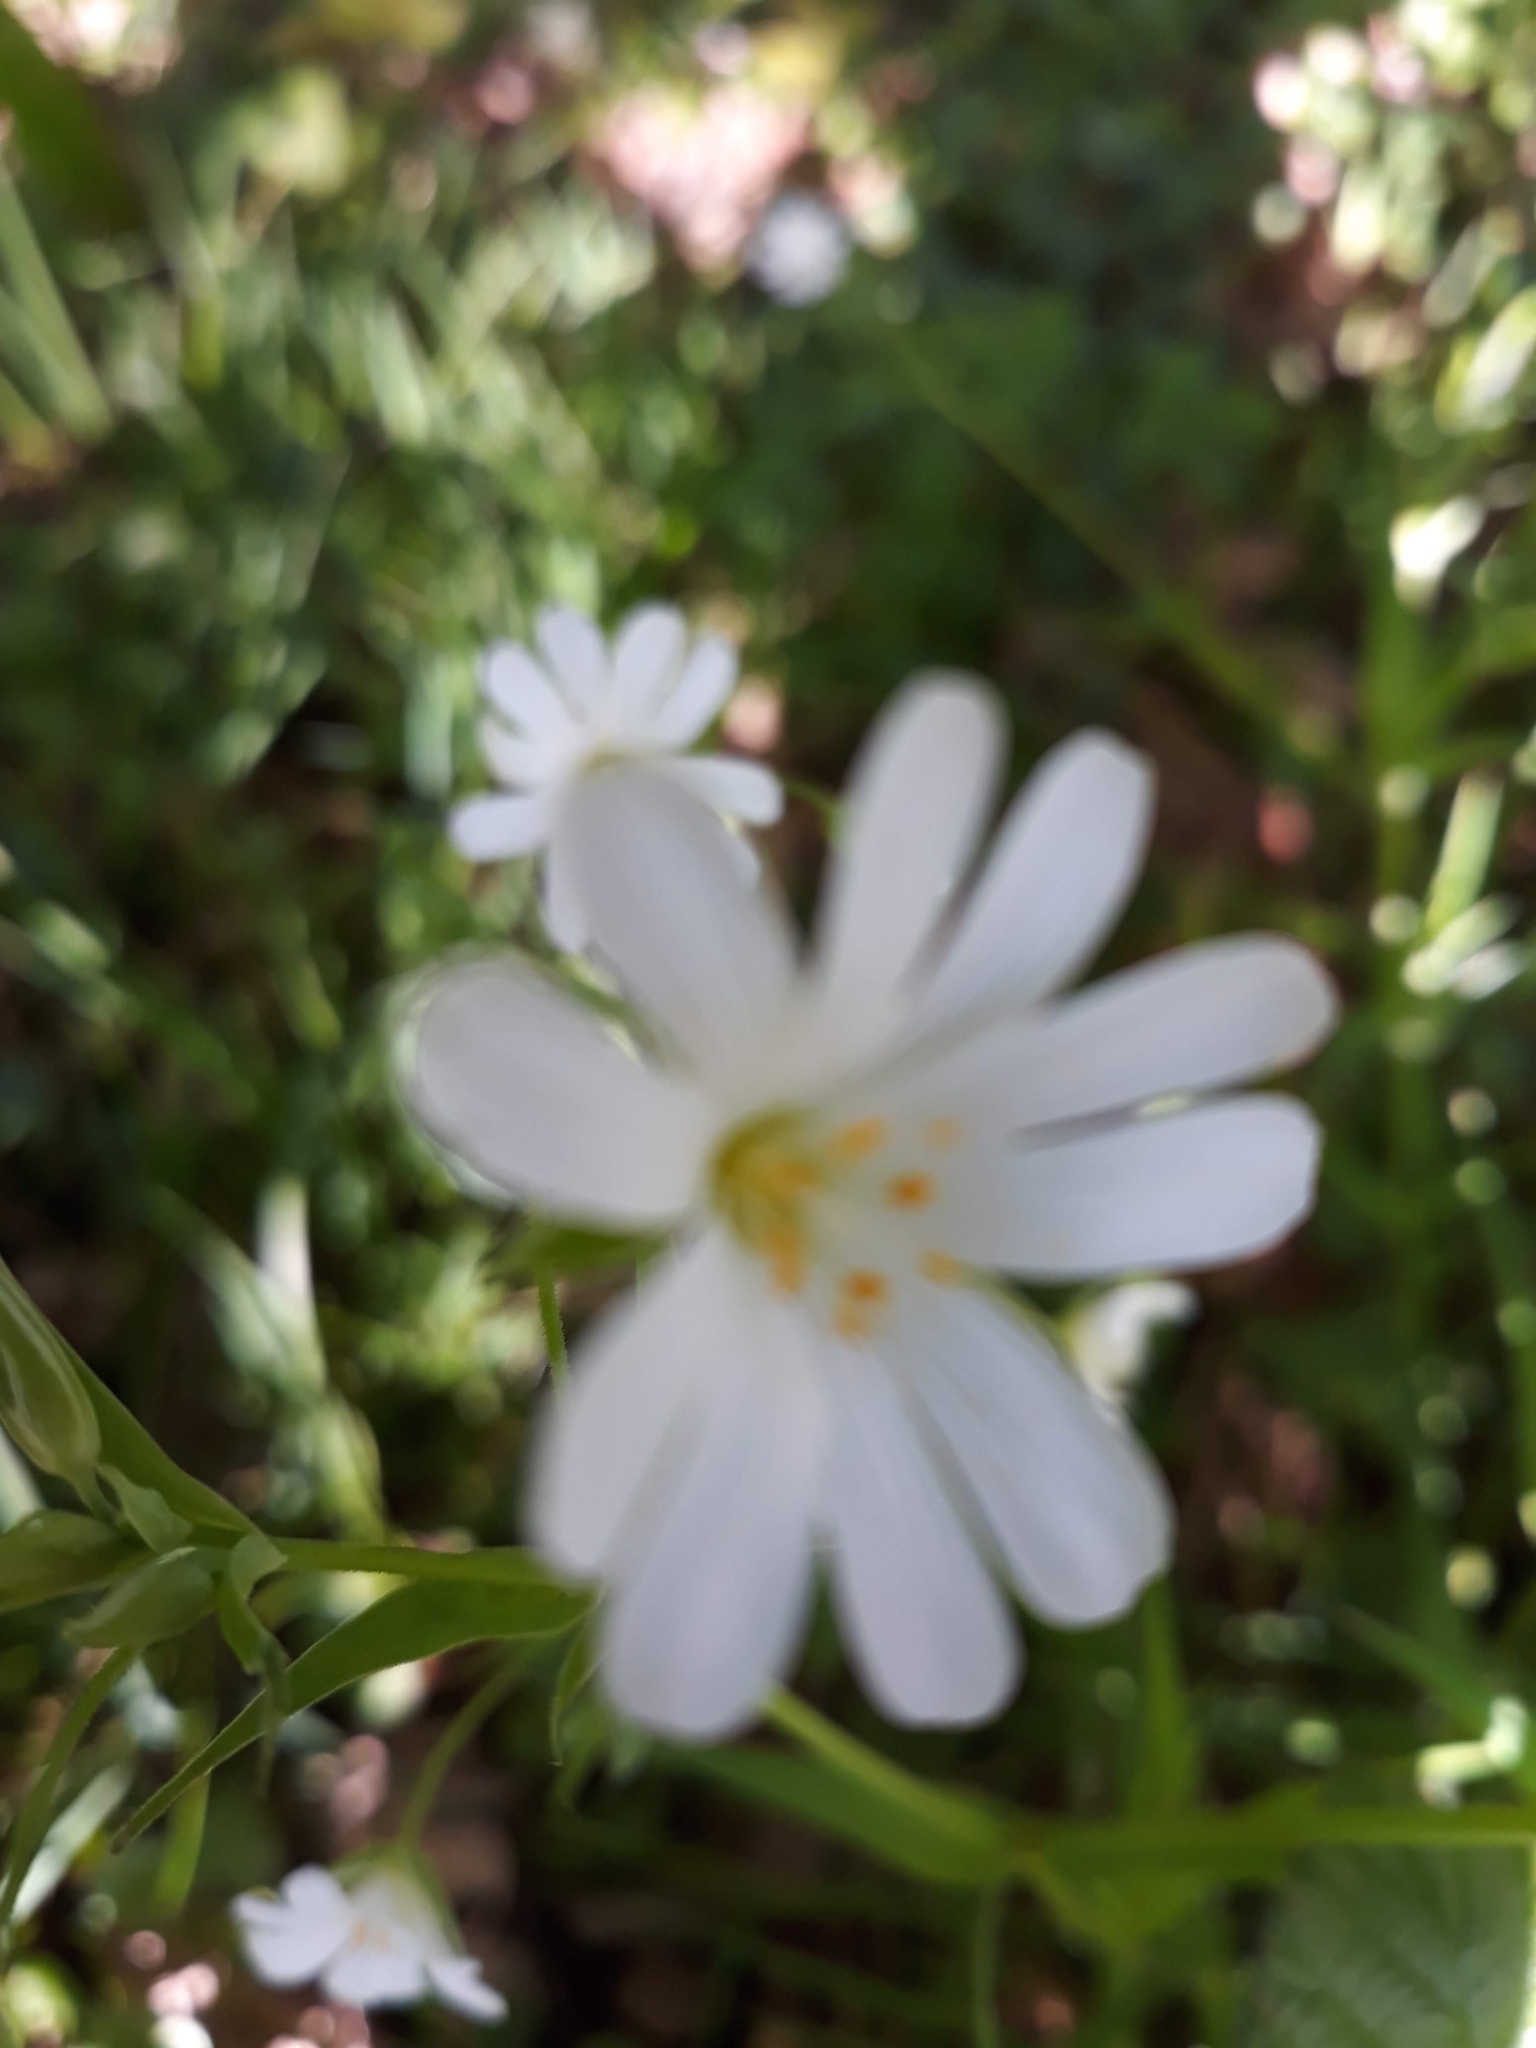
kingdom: Plantae
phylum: Tracheophyta
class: Magnoliopsida
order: Caryophyllales
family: Caryophyllaceae
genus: Rabelera
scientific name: Rabelera holostea
